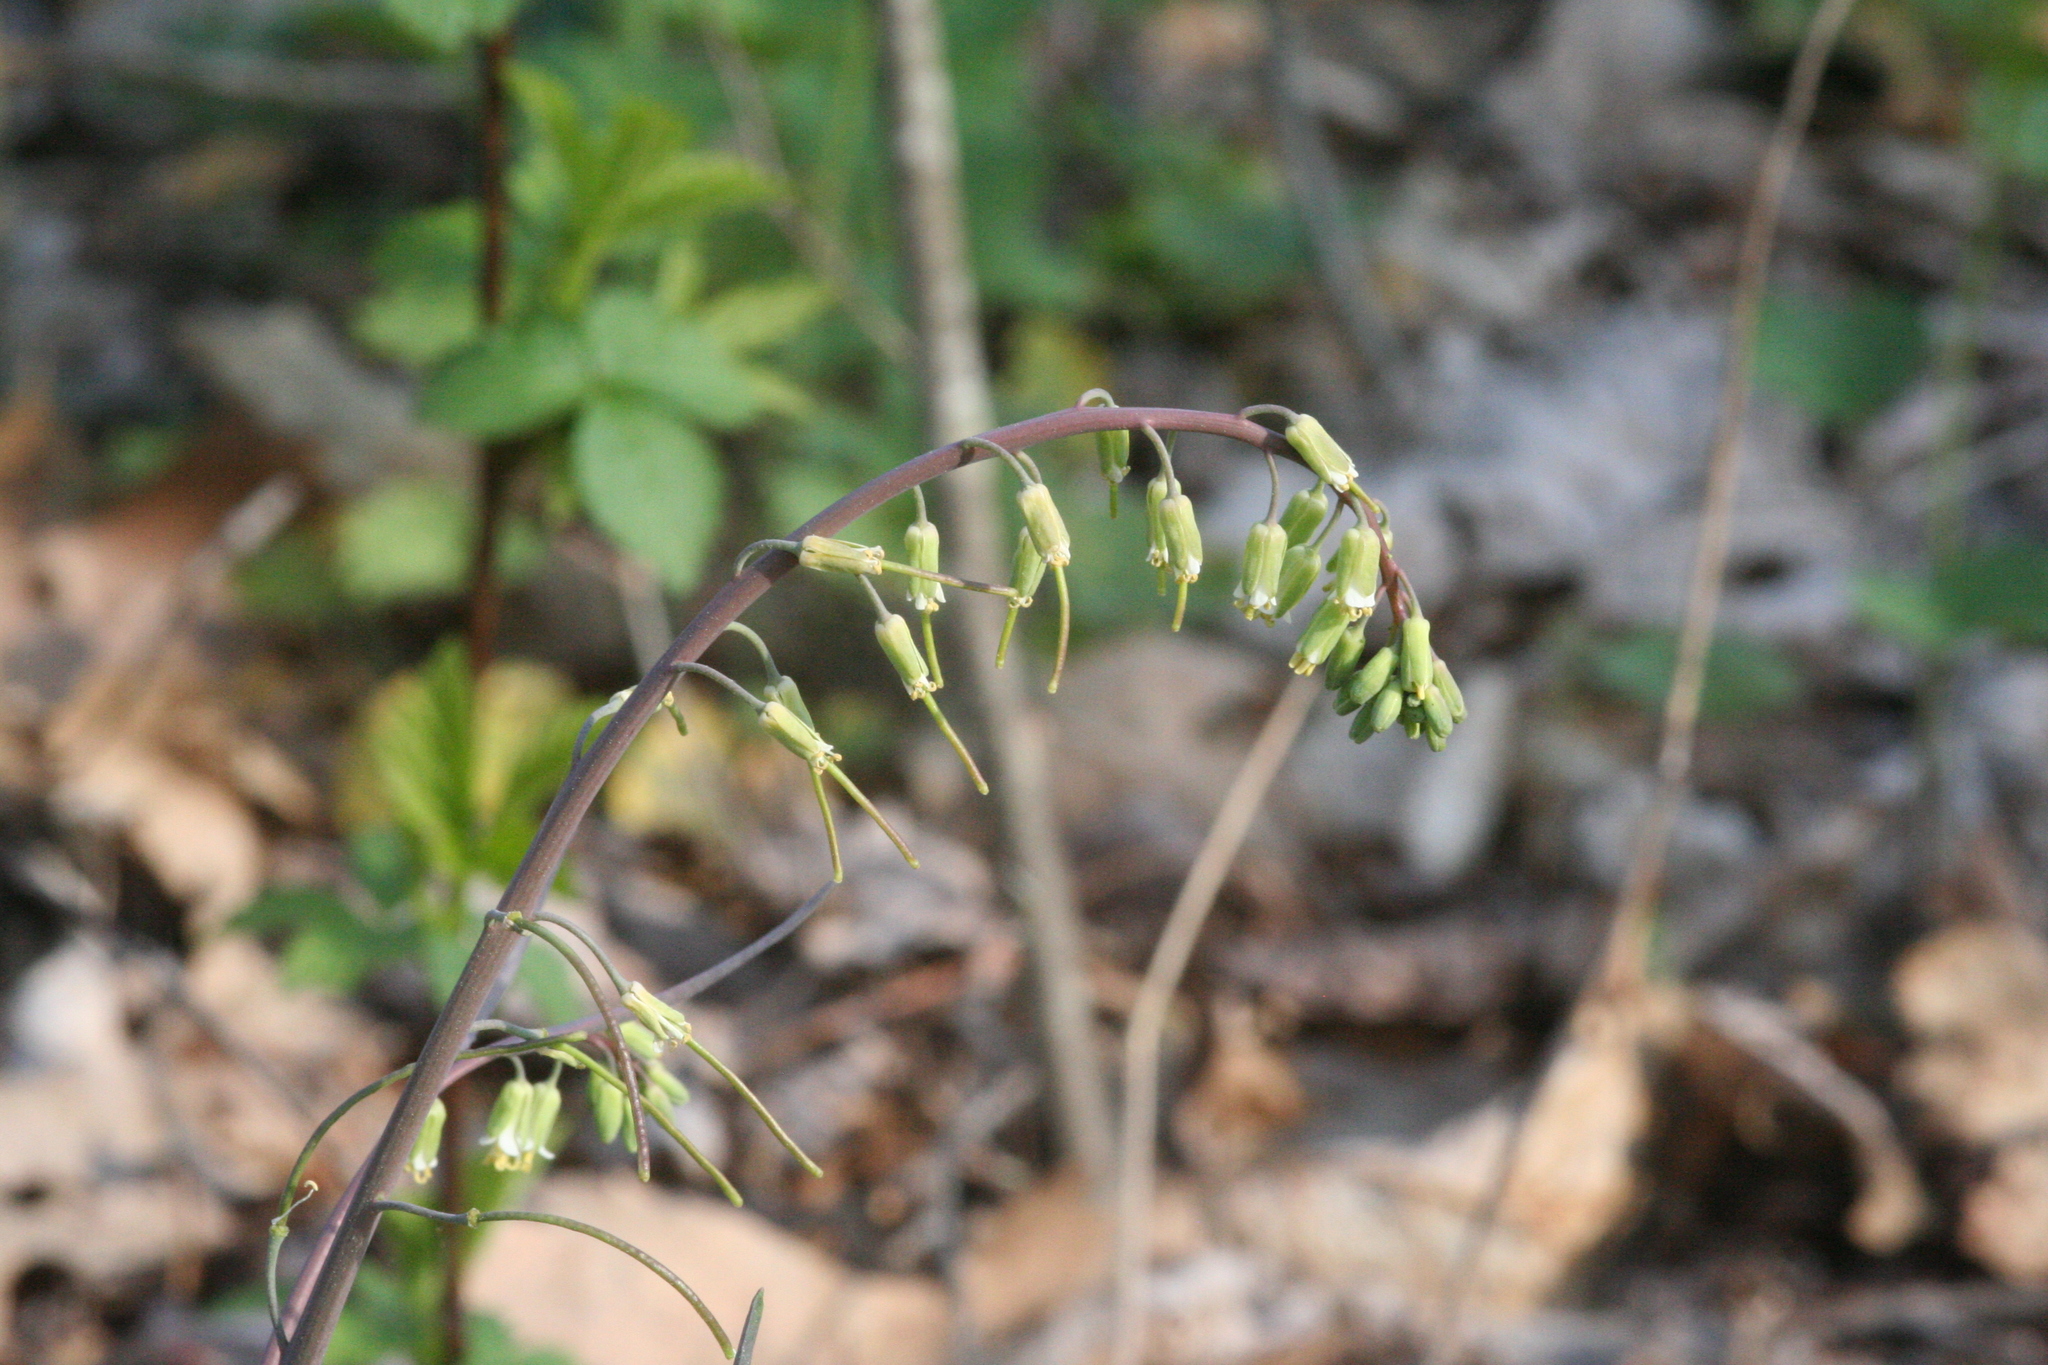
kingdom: Plantae
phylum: Tracheophyta
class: Magnoliopsida
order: Brassicales
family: Brassicaceae
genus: Borodinia
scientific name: Borodinia laevigata
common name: Smooth rockcress
